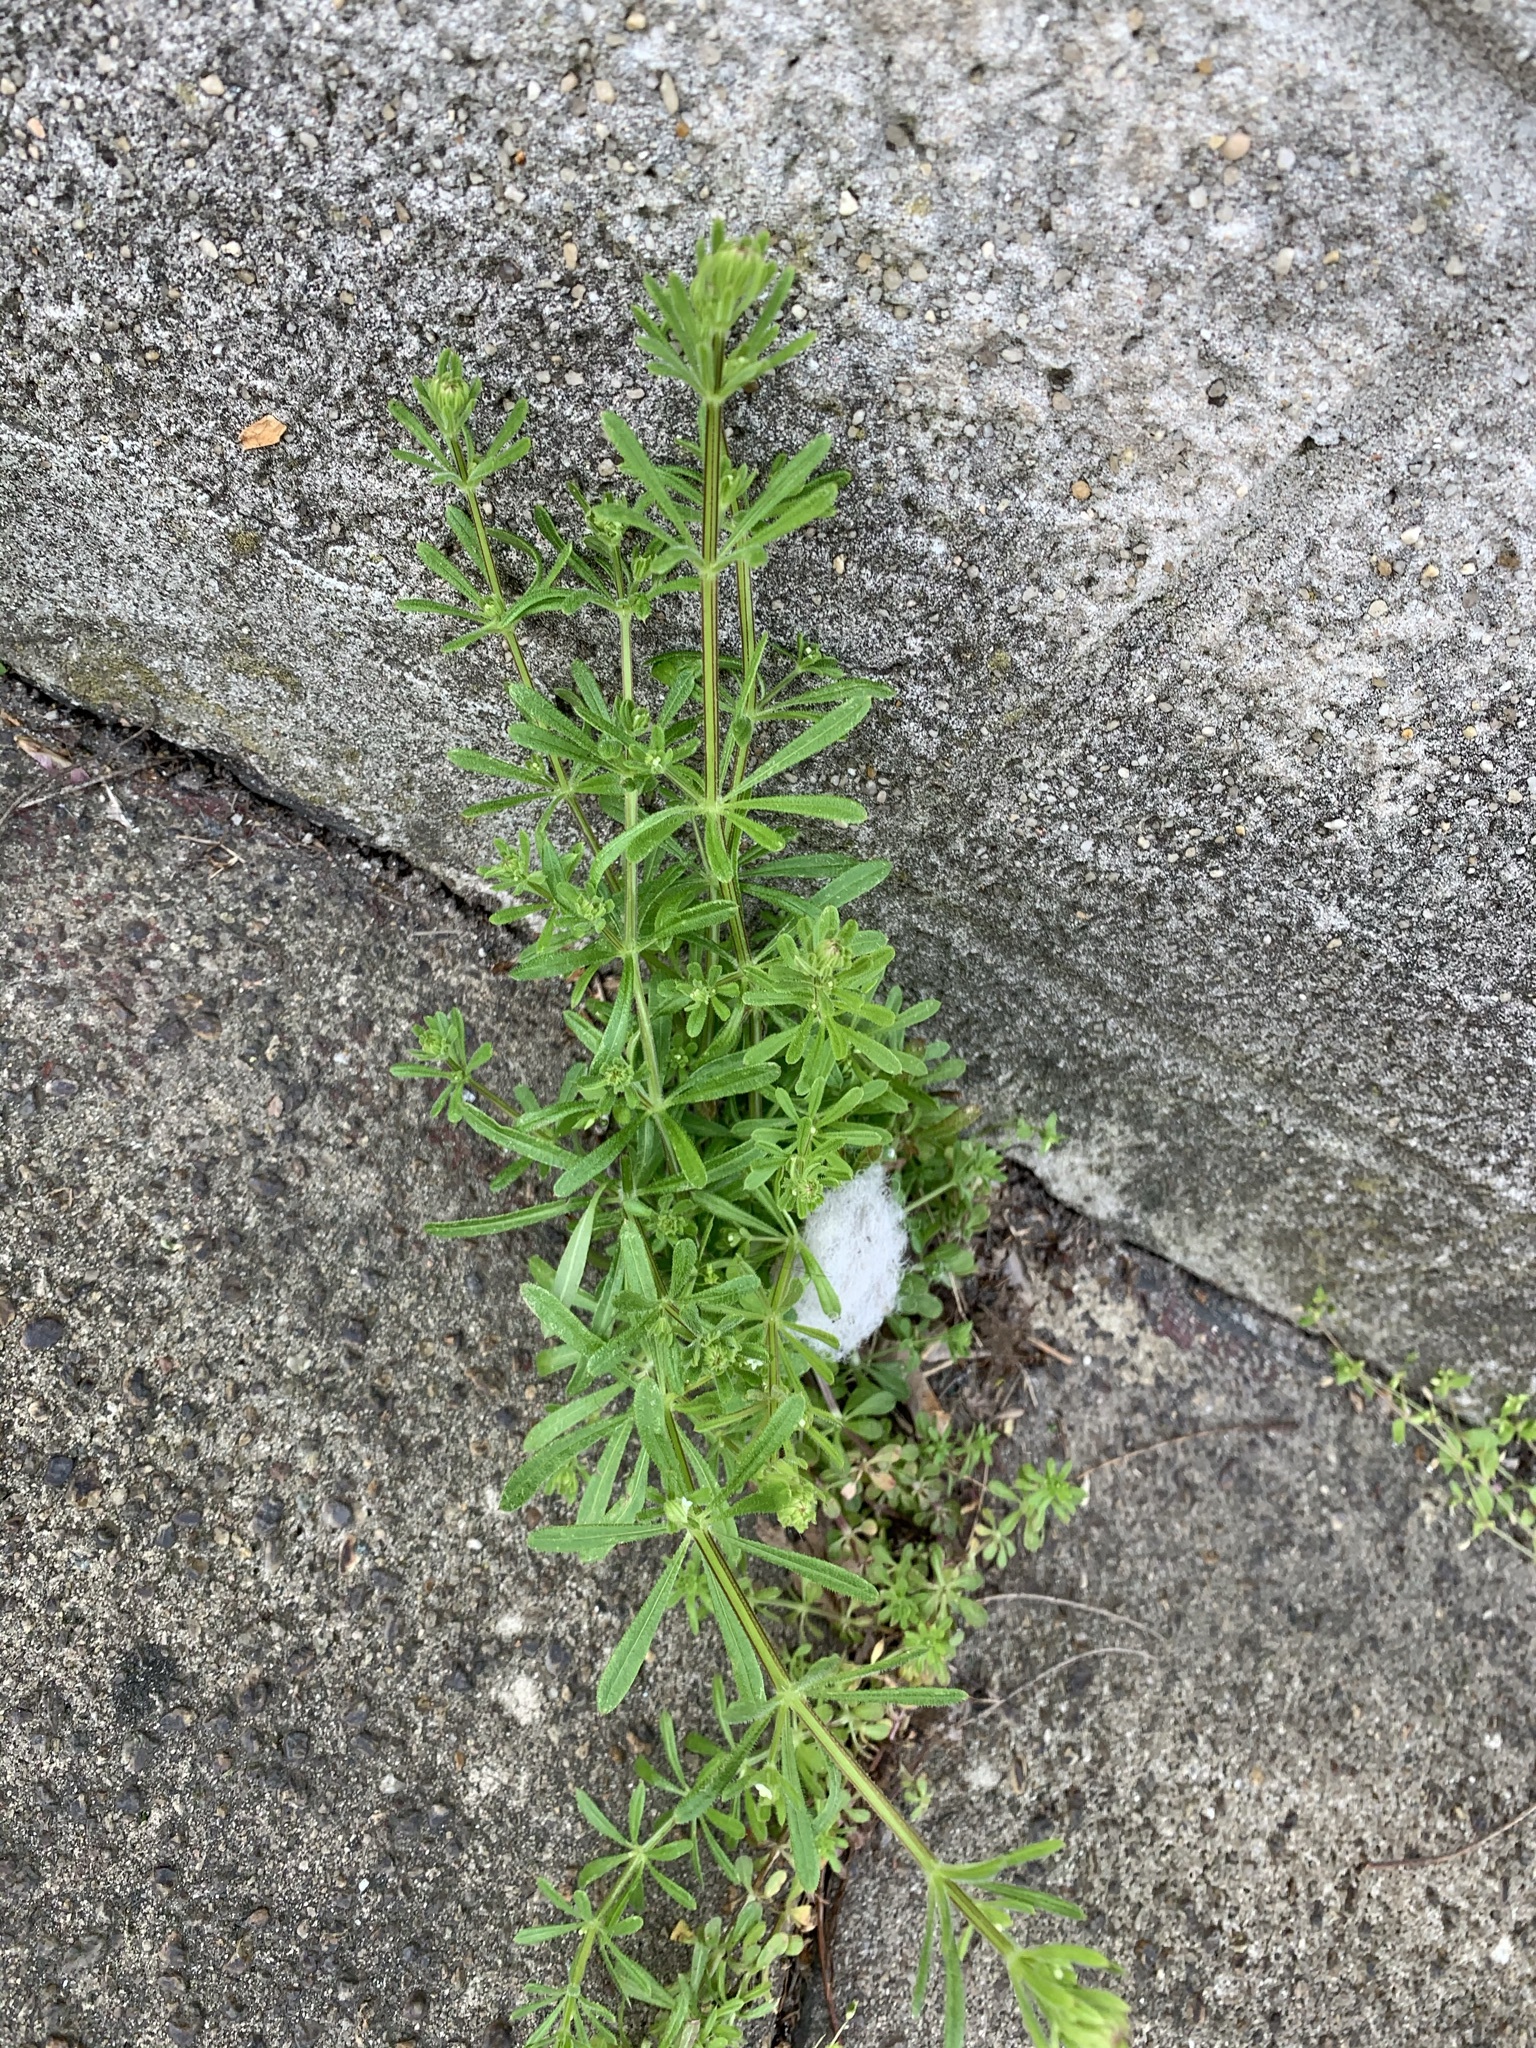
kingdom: Plantae
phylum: Tracheophyta
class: Magnoliopsida
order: Gentianales
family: Rubiaceae
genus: Galium
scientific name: Galium aparine
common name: Cleavers
